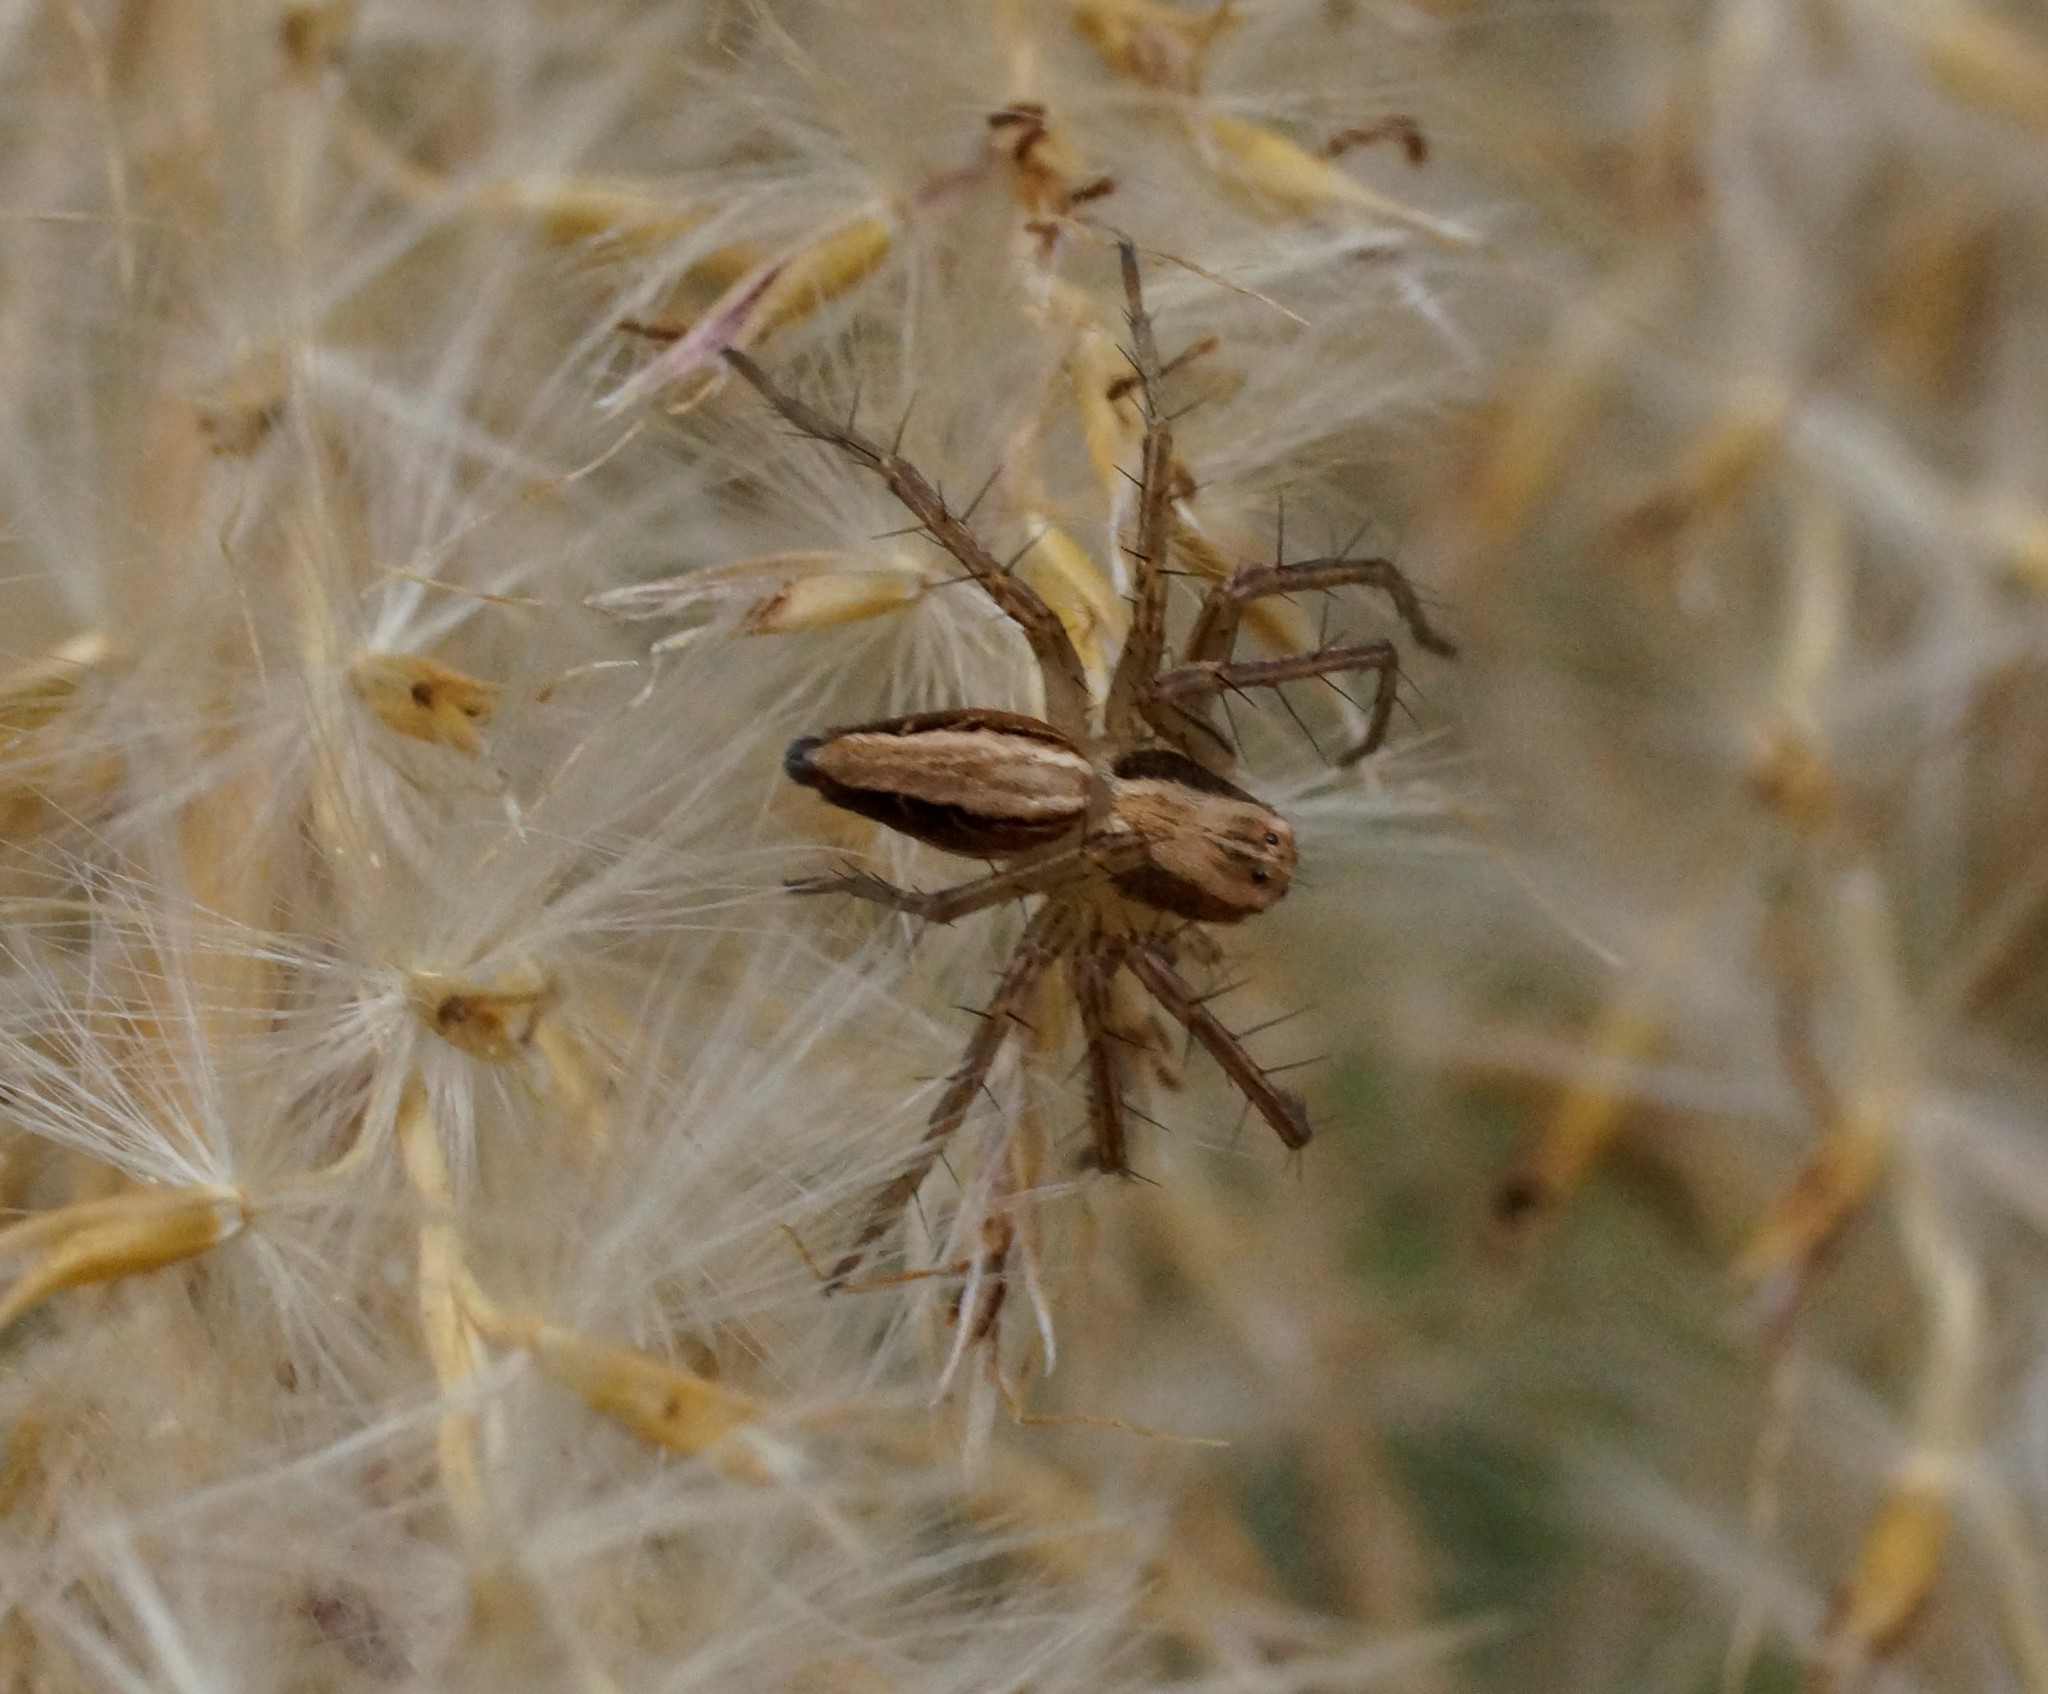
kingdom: Animalia
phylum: Arthropoda
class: Arachnida
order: Araneae
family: Oxyopidae
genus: Oxyopes
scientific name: Oxyopes gracilipes
